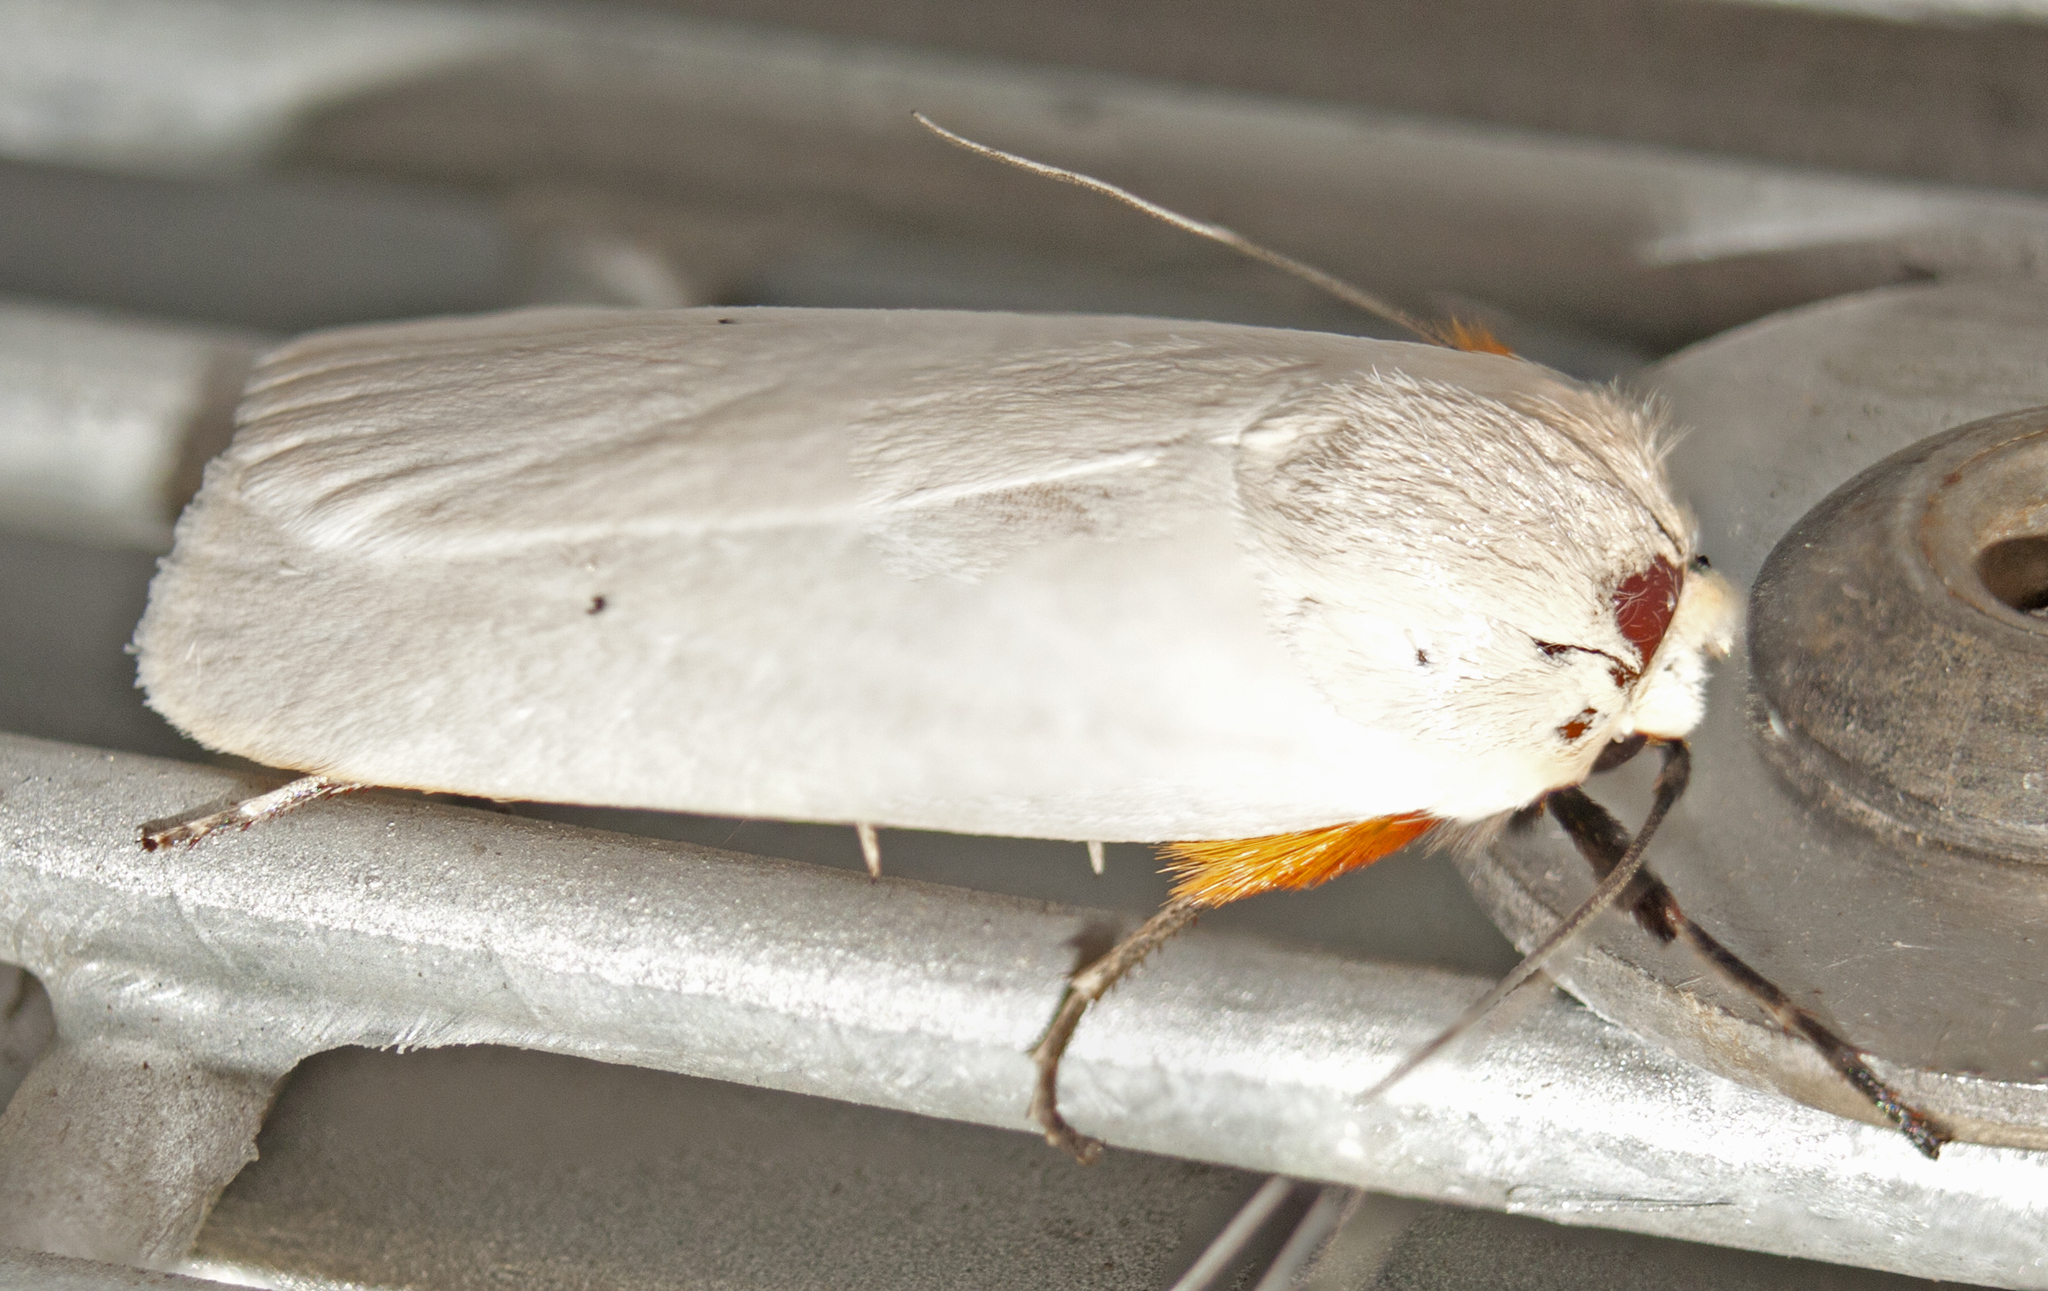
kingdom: Animalia
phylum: Arthropoda
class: Insecta
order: Lepidoptera
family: Xyloryctidae
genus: Maroga
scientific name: Maroga melanostigma
